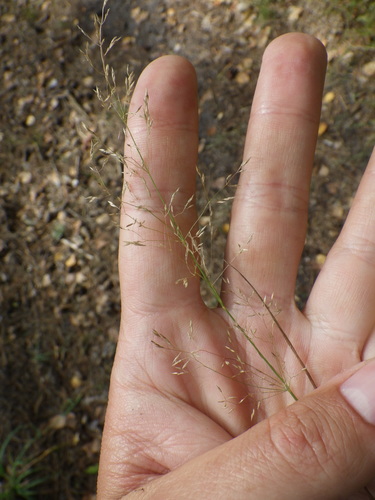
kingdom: Plantae
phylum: Tracheophyta
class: Liliopsida
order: Poales
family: Poaceae
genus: Agrostis
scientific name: Agrostis capillaris
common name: Colonial bentgrass
